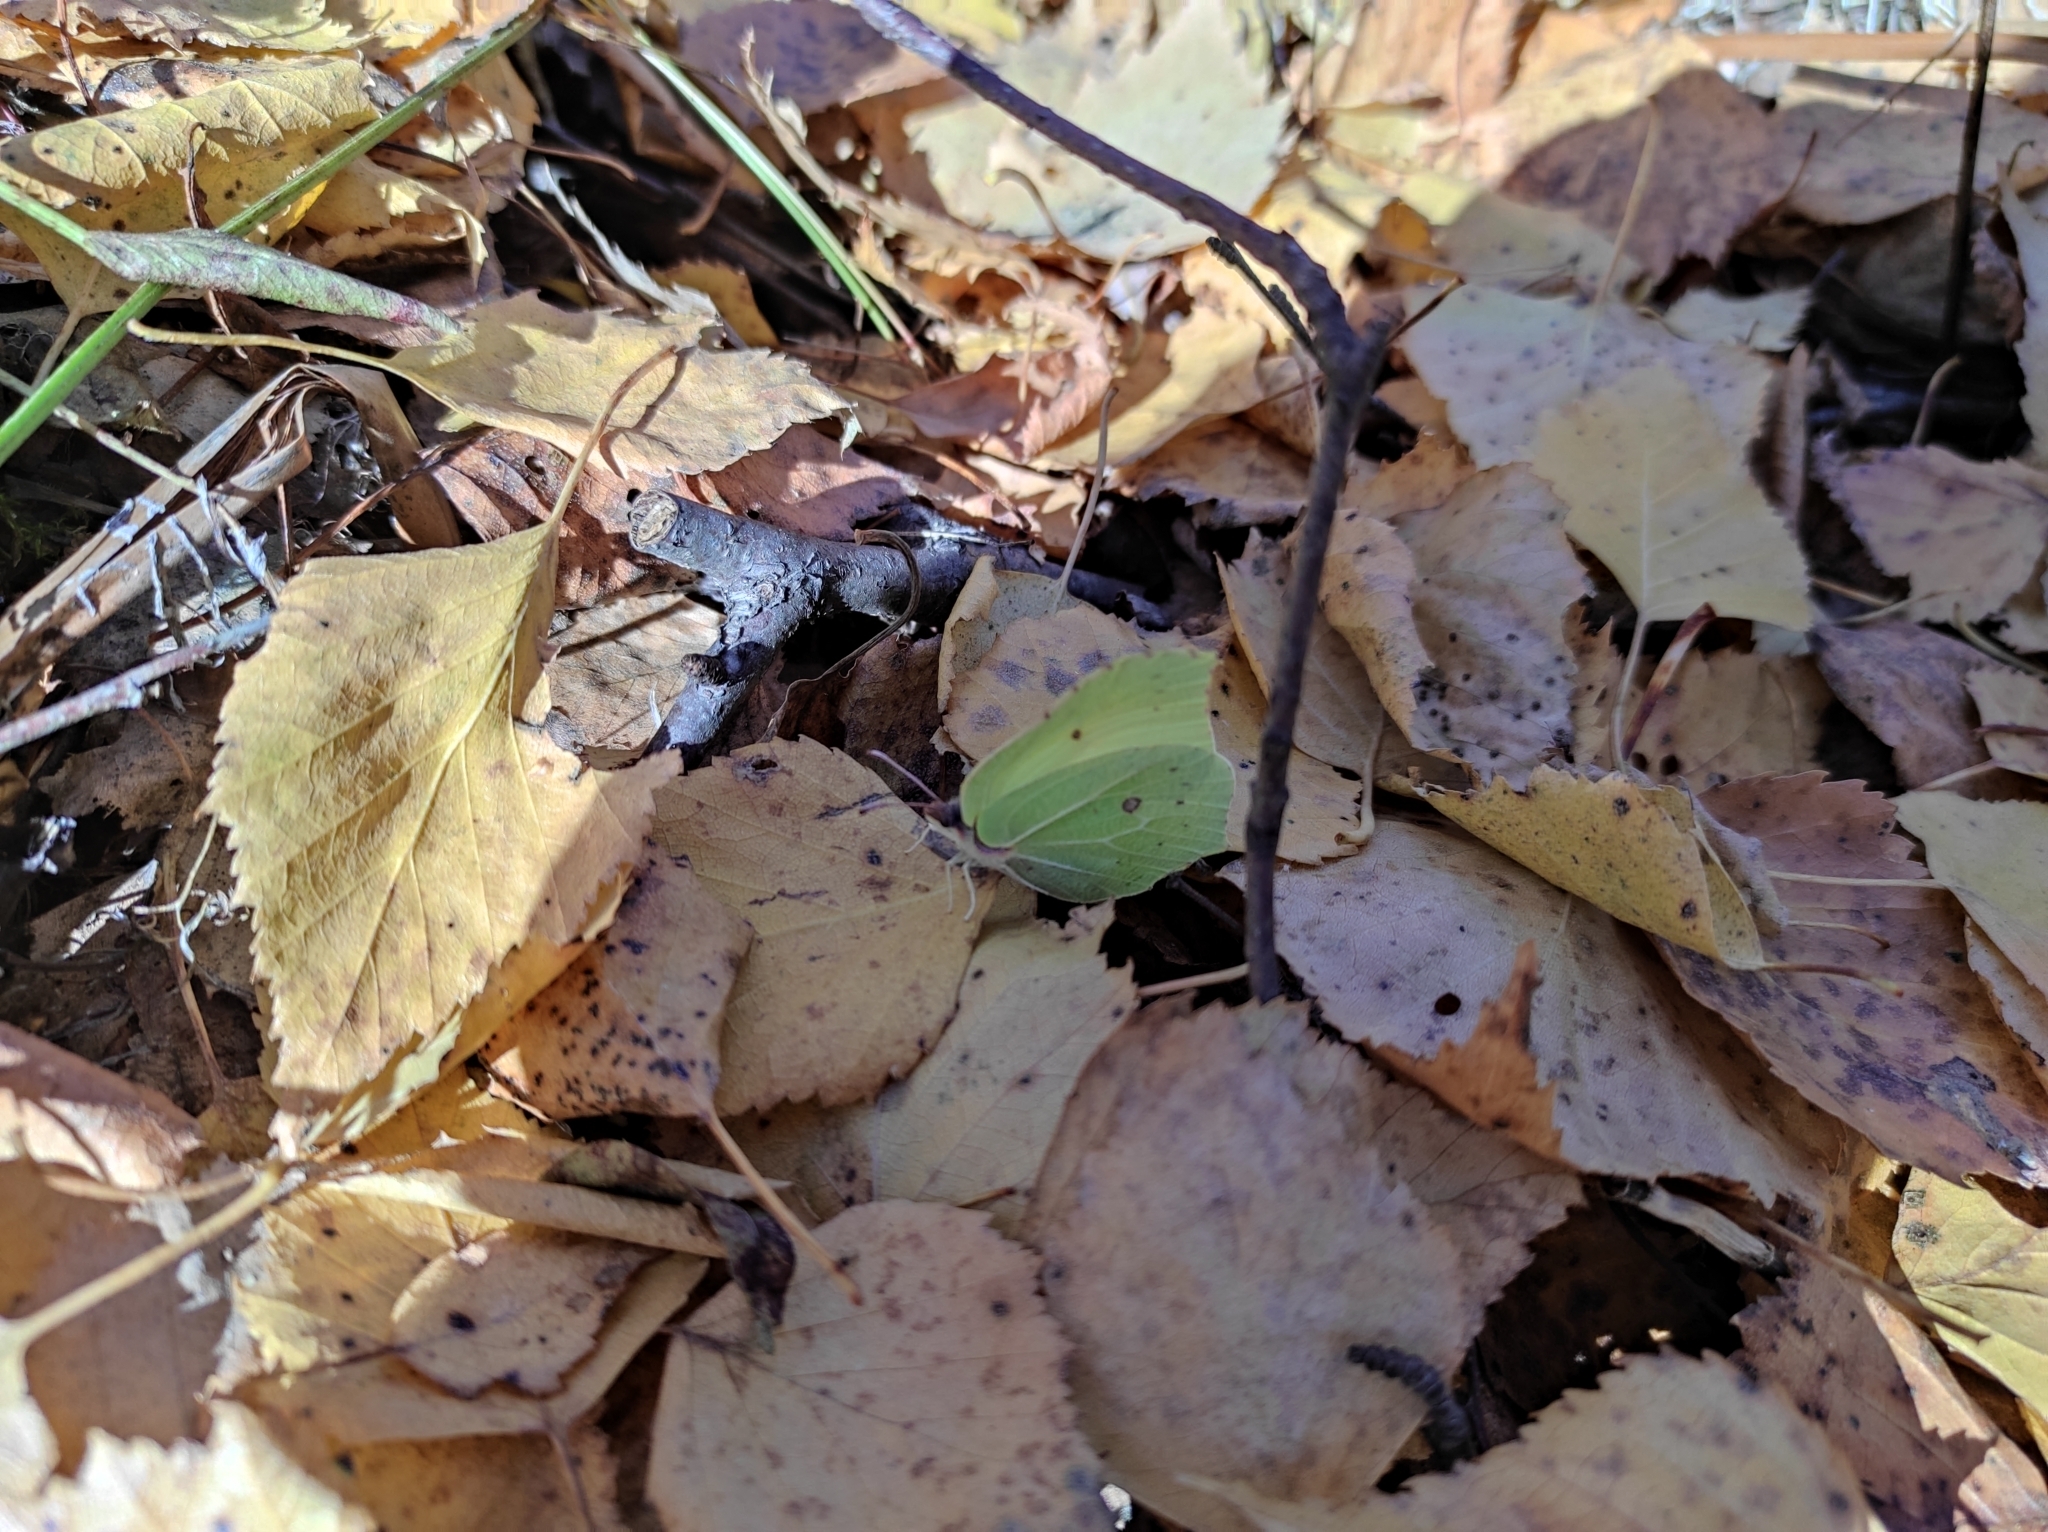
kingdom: Animalia
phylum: Arthropoda
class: Insecta
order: Lepidoptera
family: Pieridae
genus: Gonepteryx
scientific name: Gonepteryx rhamni
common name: Brimstone
